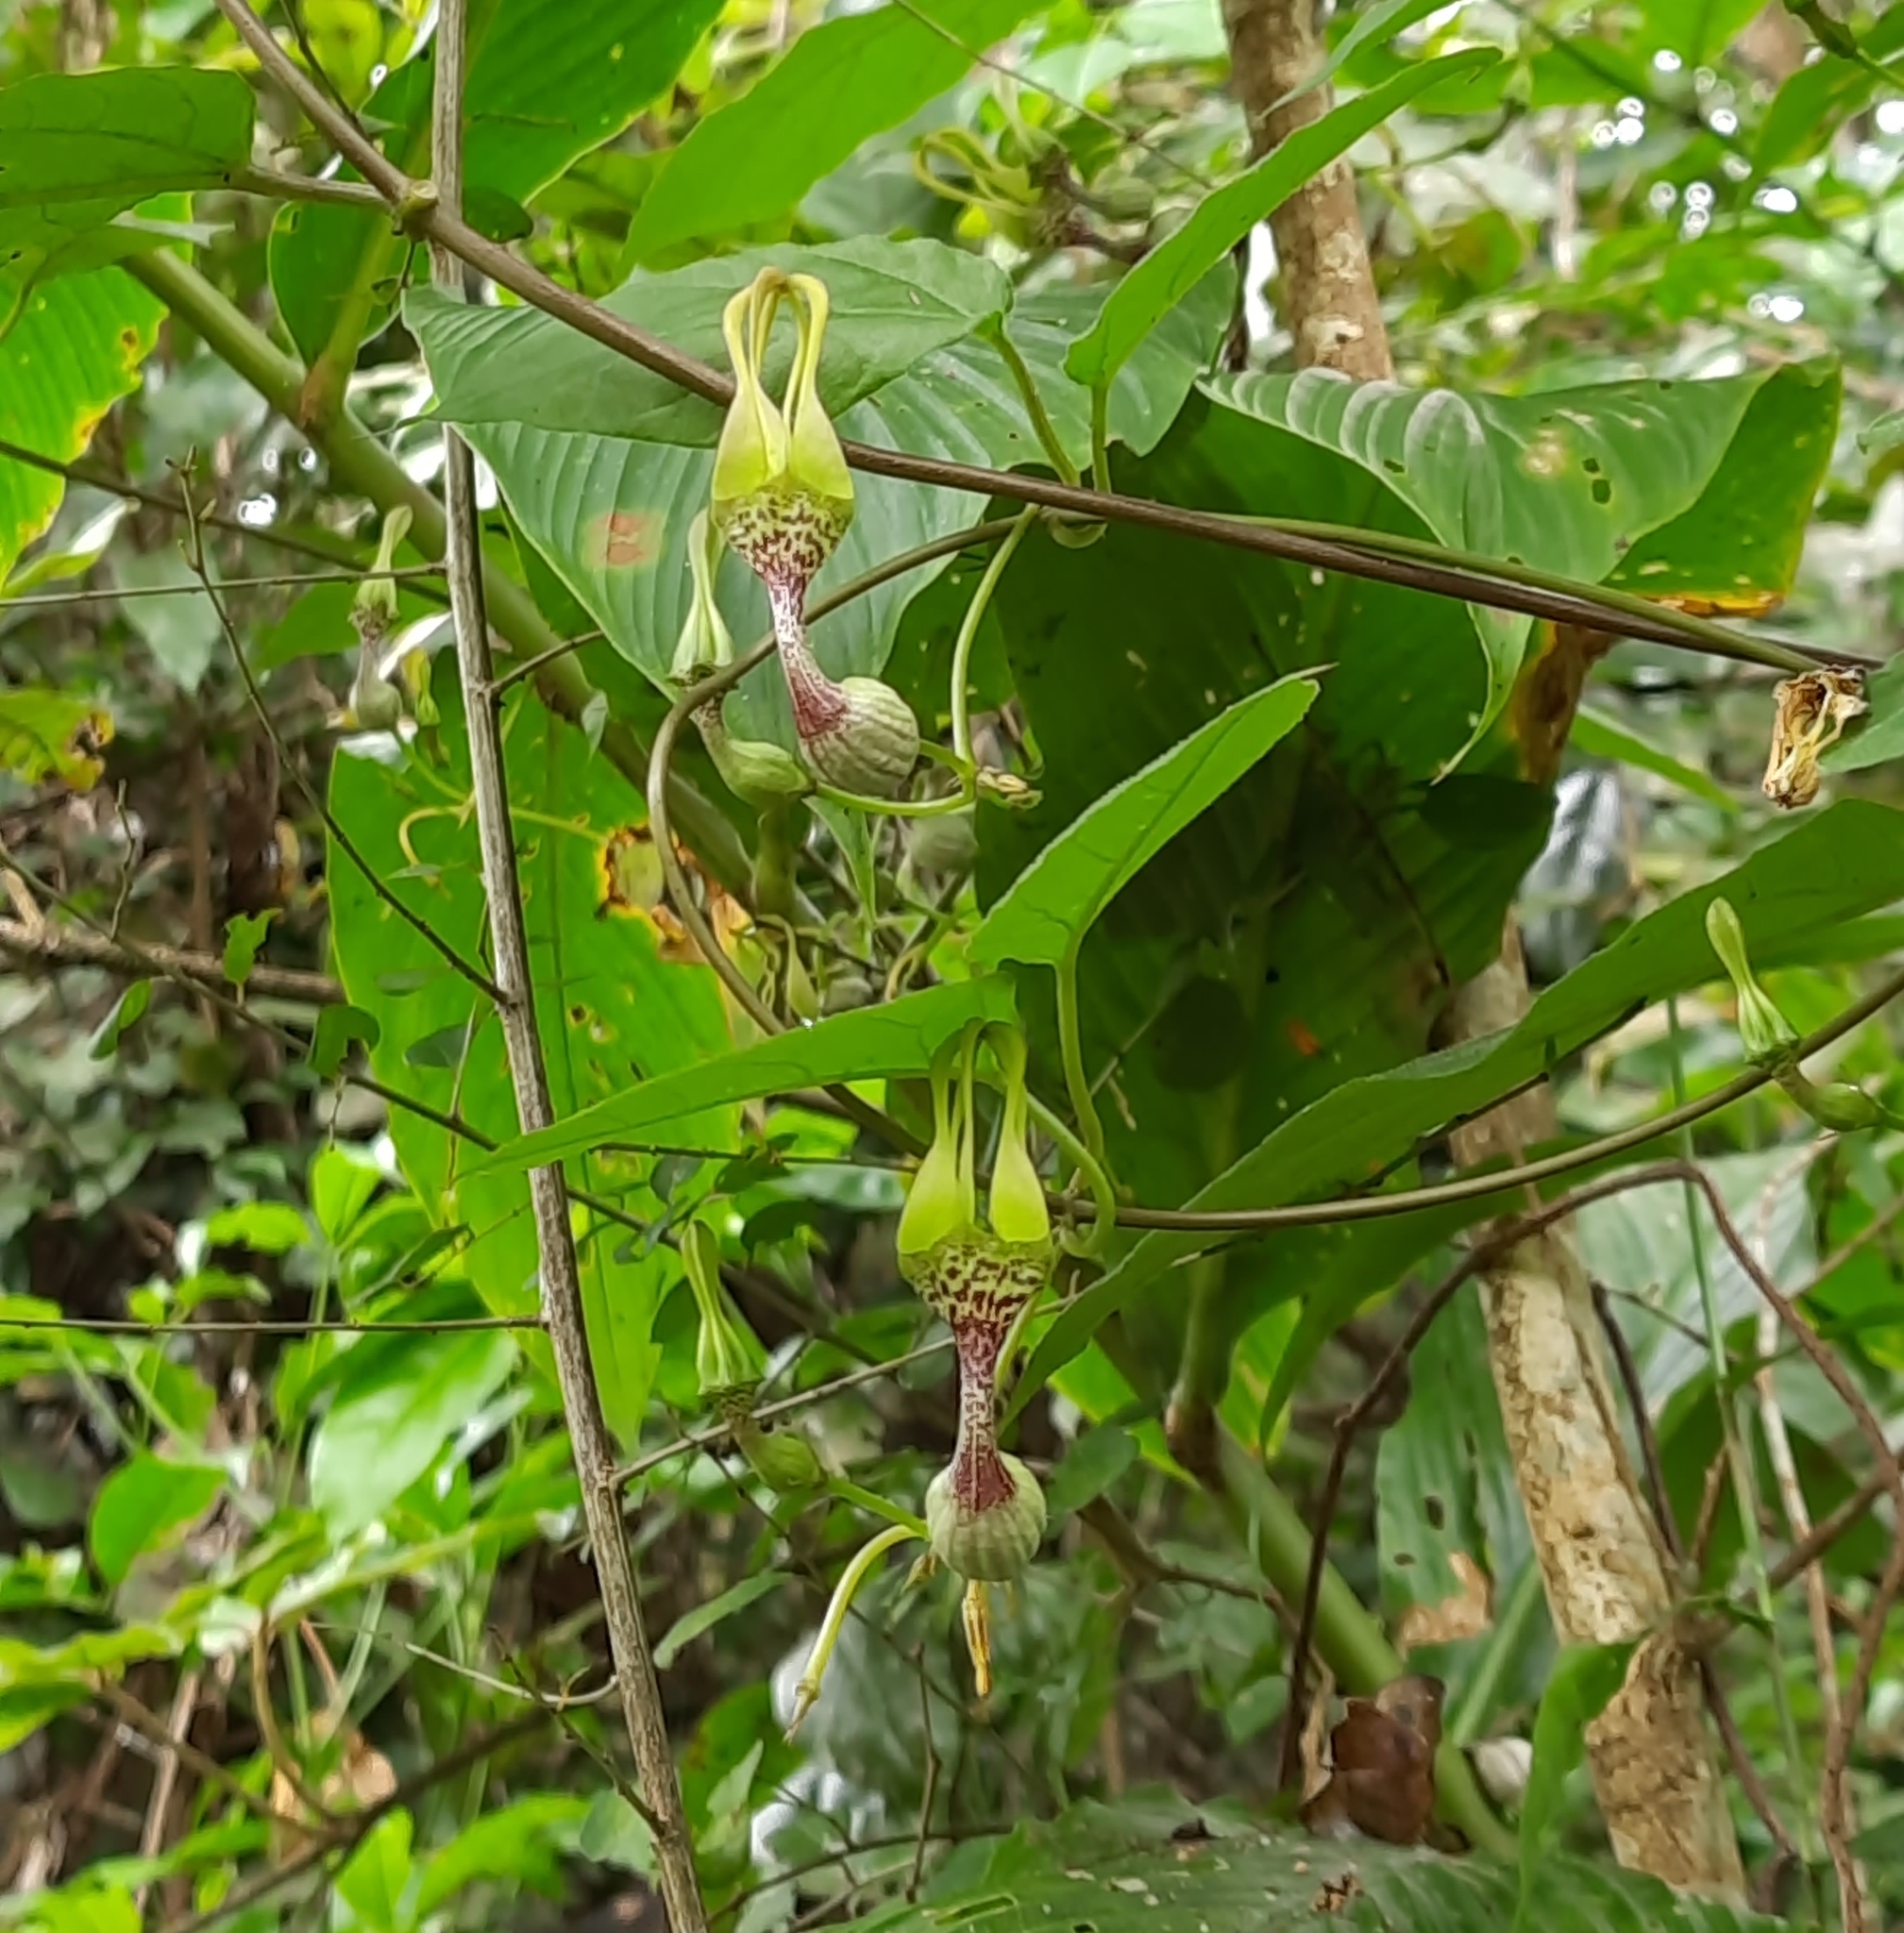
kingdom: Plantae
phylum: Tracheophyta
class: Magnoliopsida
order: Gentianales
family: Apocynaceae
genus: Ceropegia
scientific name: Ceropegia decaisneana
